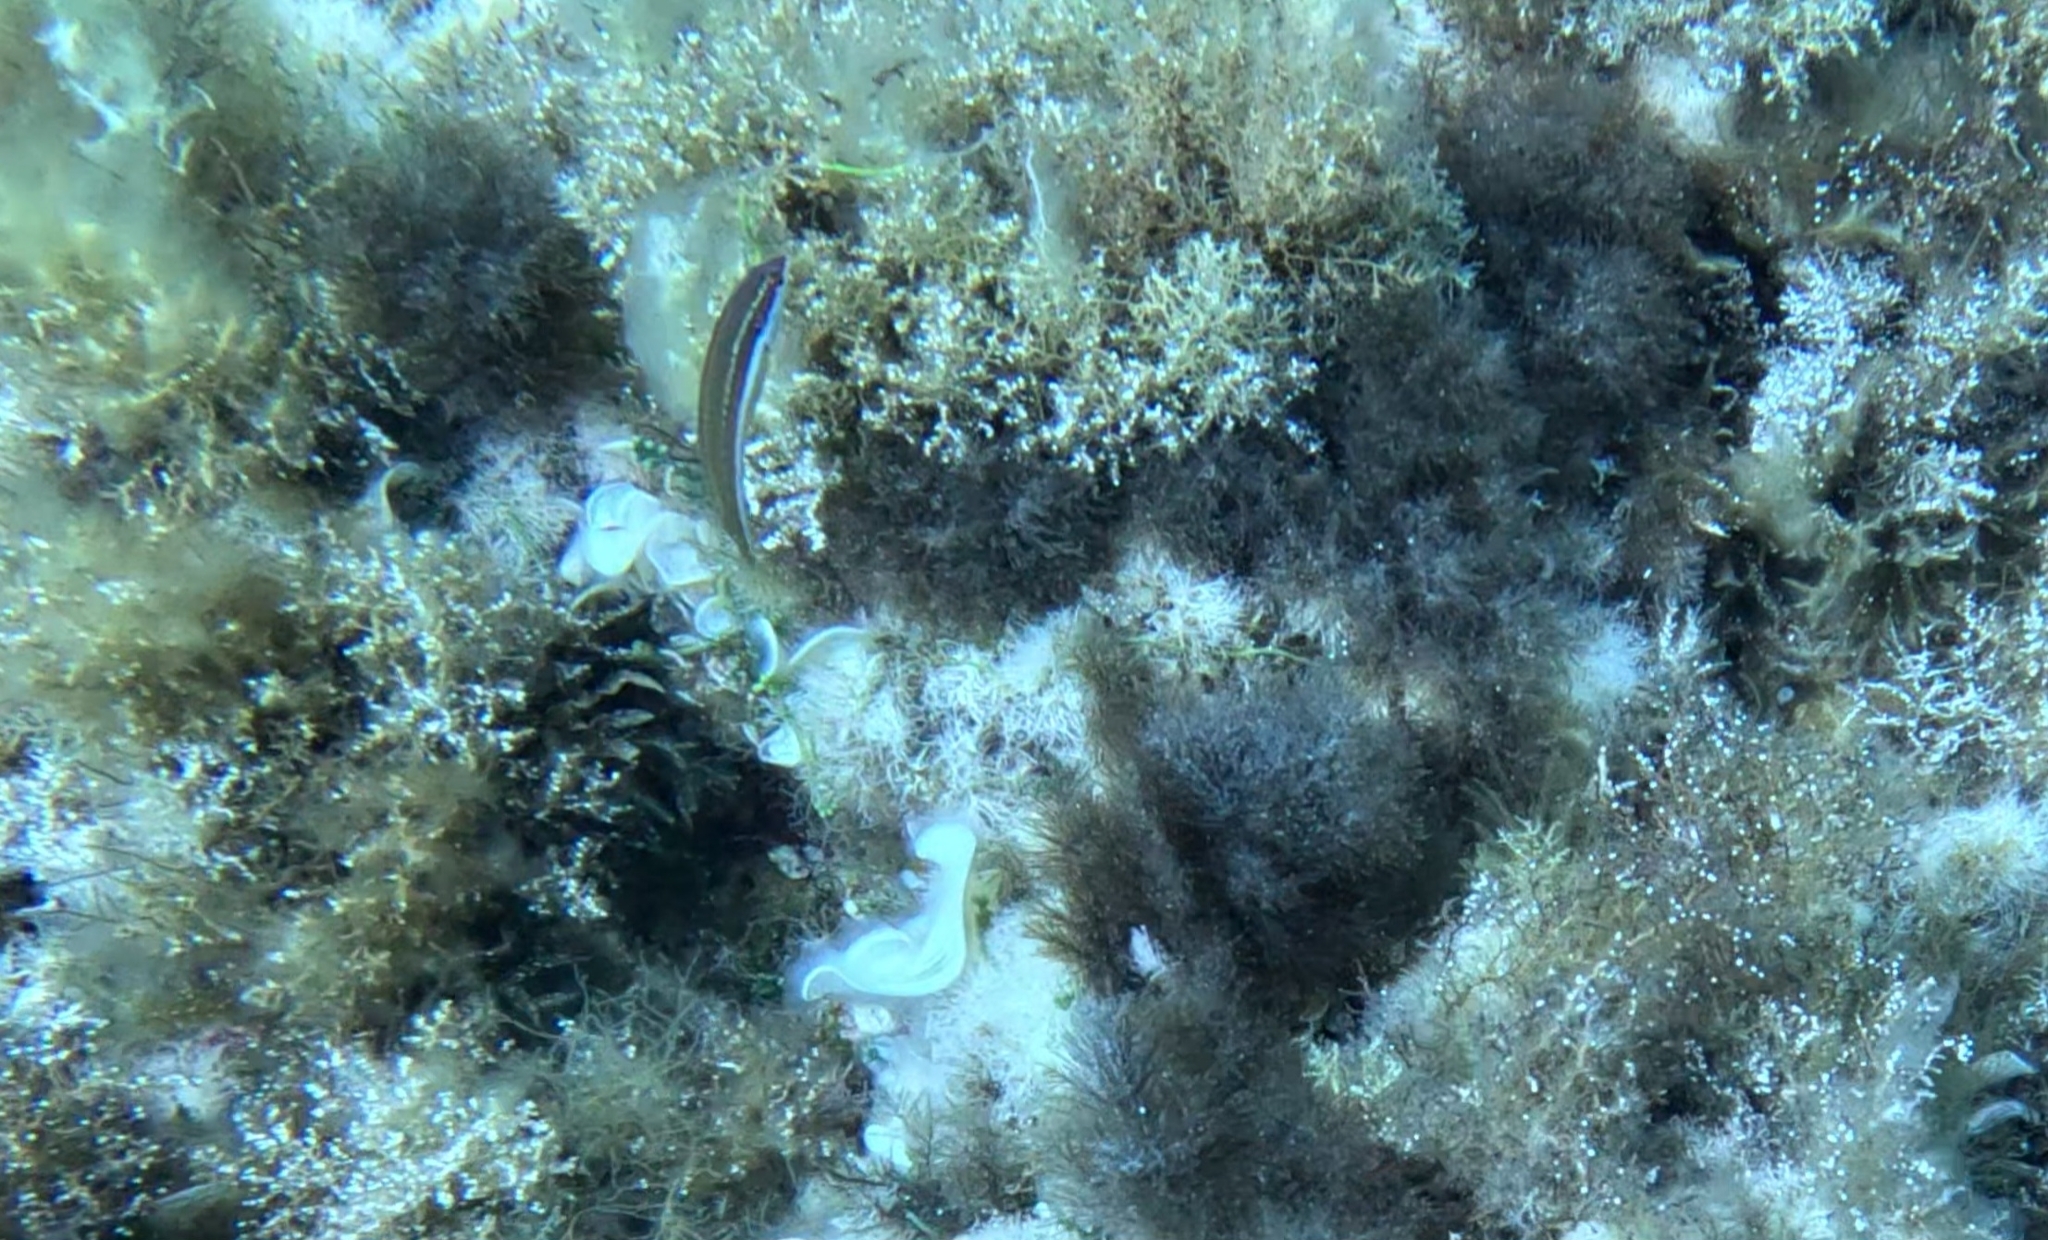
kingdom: Animalia
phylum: Chordata
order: Perciformes
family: Labridae
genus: Coris
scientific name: Coris julis
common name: Rainbow wrasse
